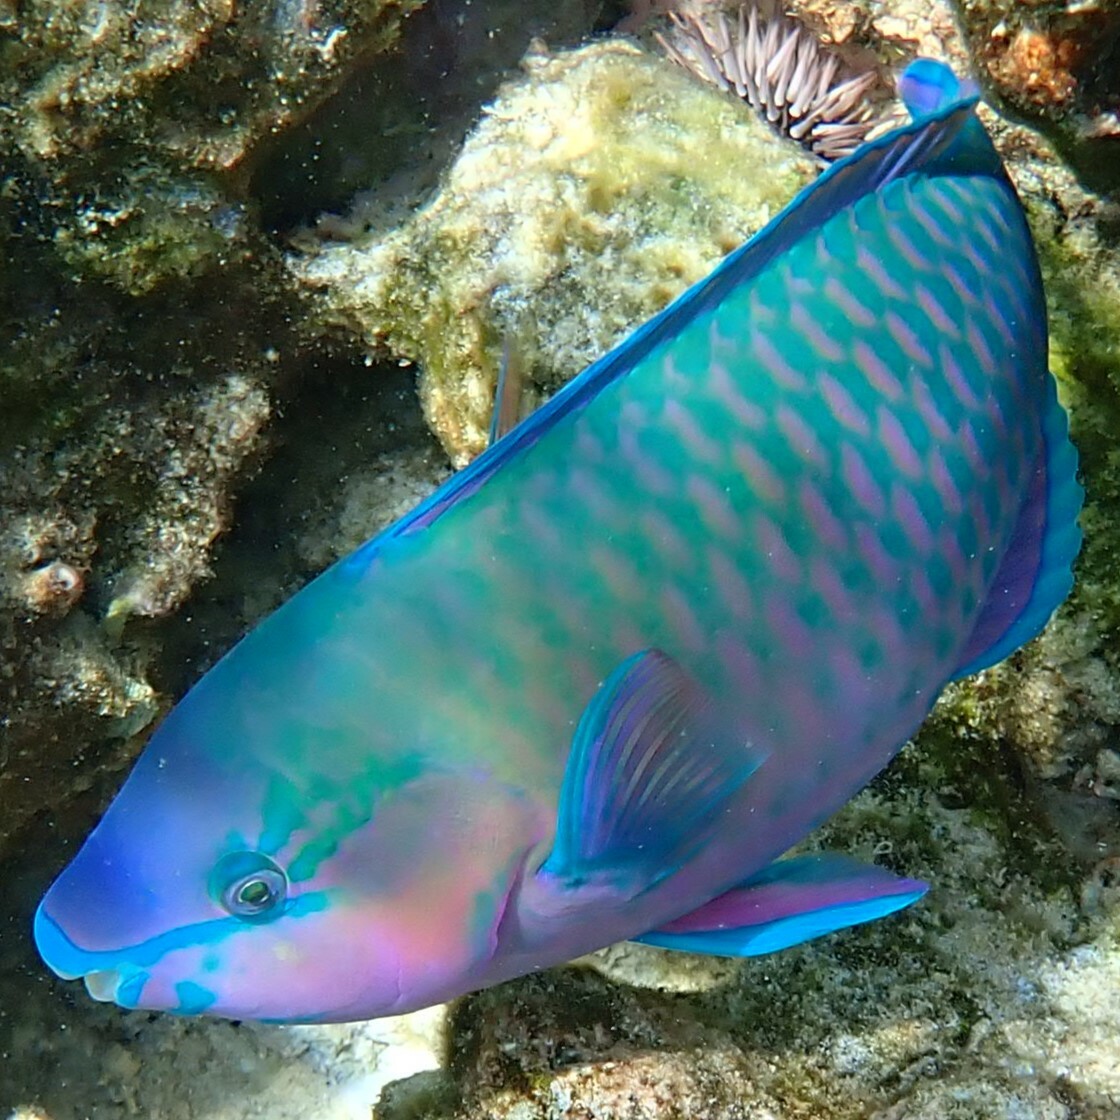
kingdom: Animalia
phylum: Chordata
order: Perciformes
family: Scaridae
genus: Scarus
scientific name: Scarus psittacus
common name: Palenose parrotfish
